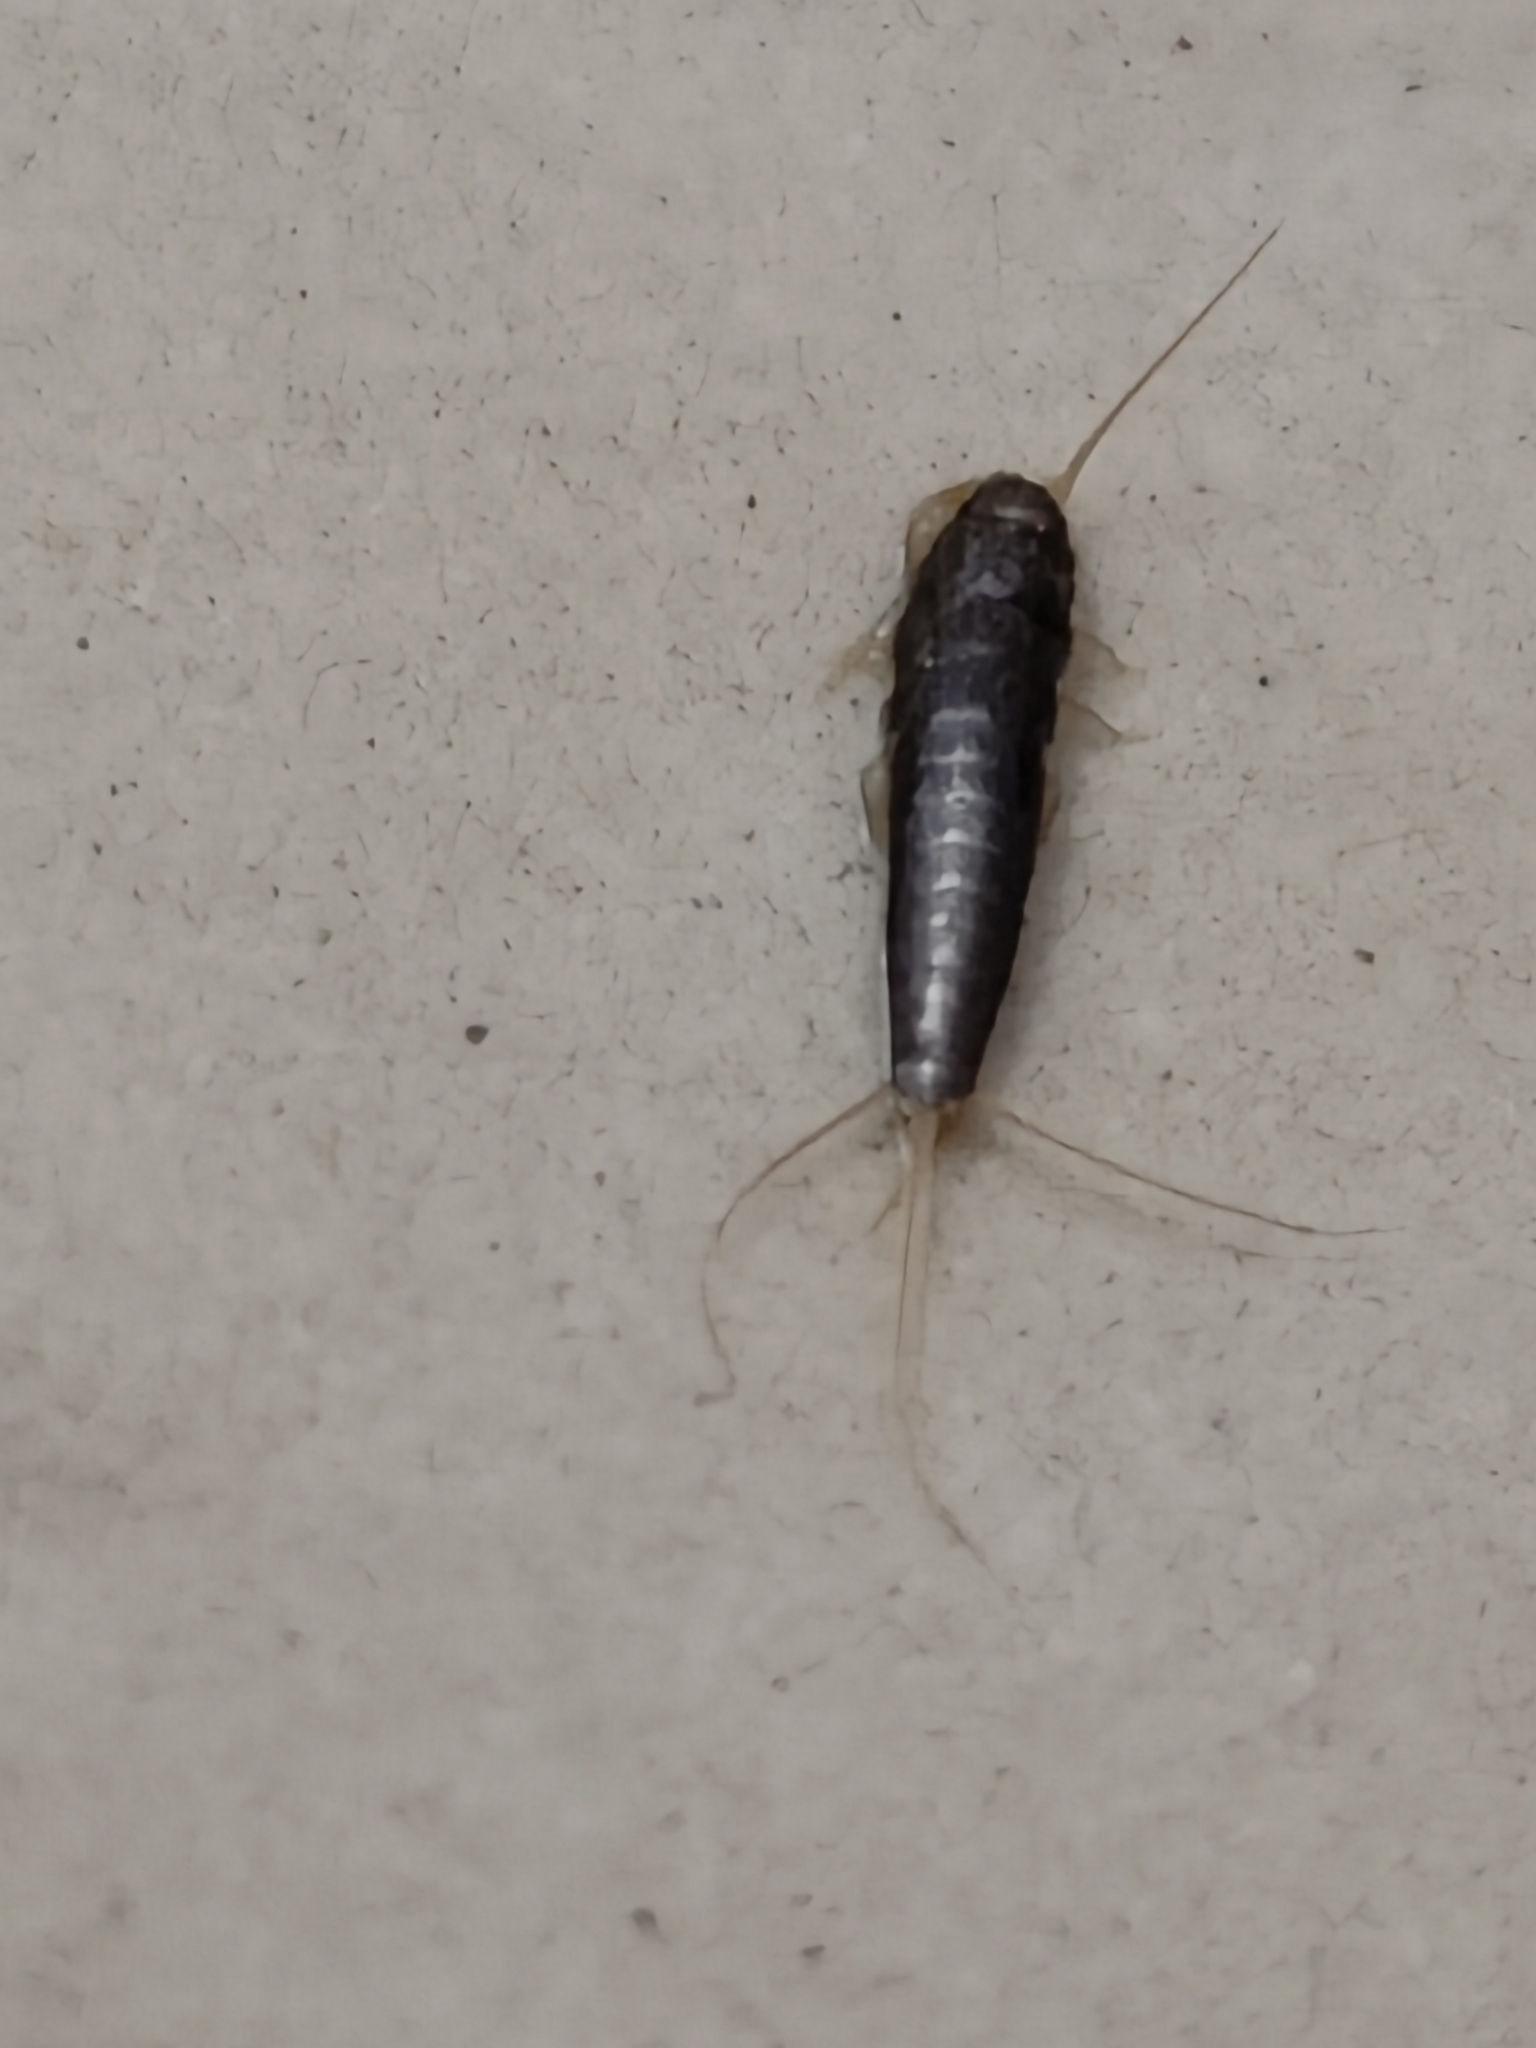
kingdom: Animalia
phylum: Arthropoda
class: Insecta
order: Zygentoma
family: Lepismatidae
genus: Lepisma
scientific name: Lepisma saccharinum
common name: Silverfish
